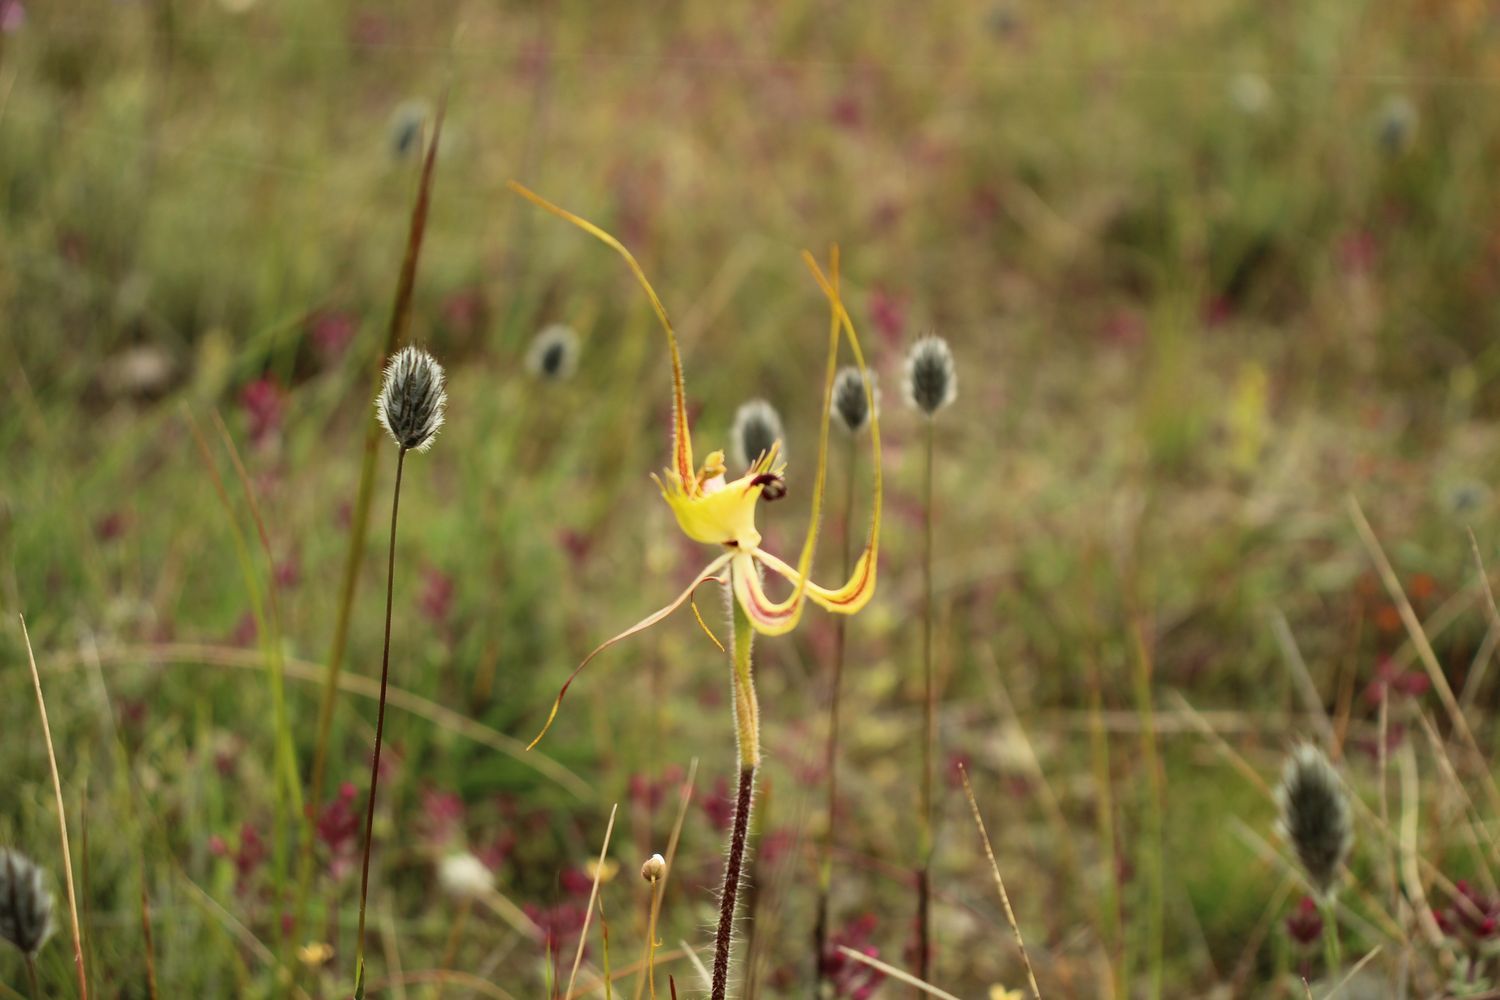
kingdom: Plantae
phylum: Tracheophyta
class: Liliopsida
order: Asparagales
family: Orchidaceae
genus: Caladenia
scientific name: Caladenia falcata
